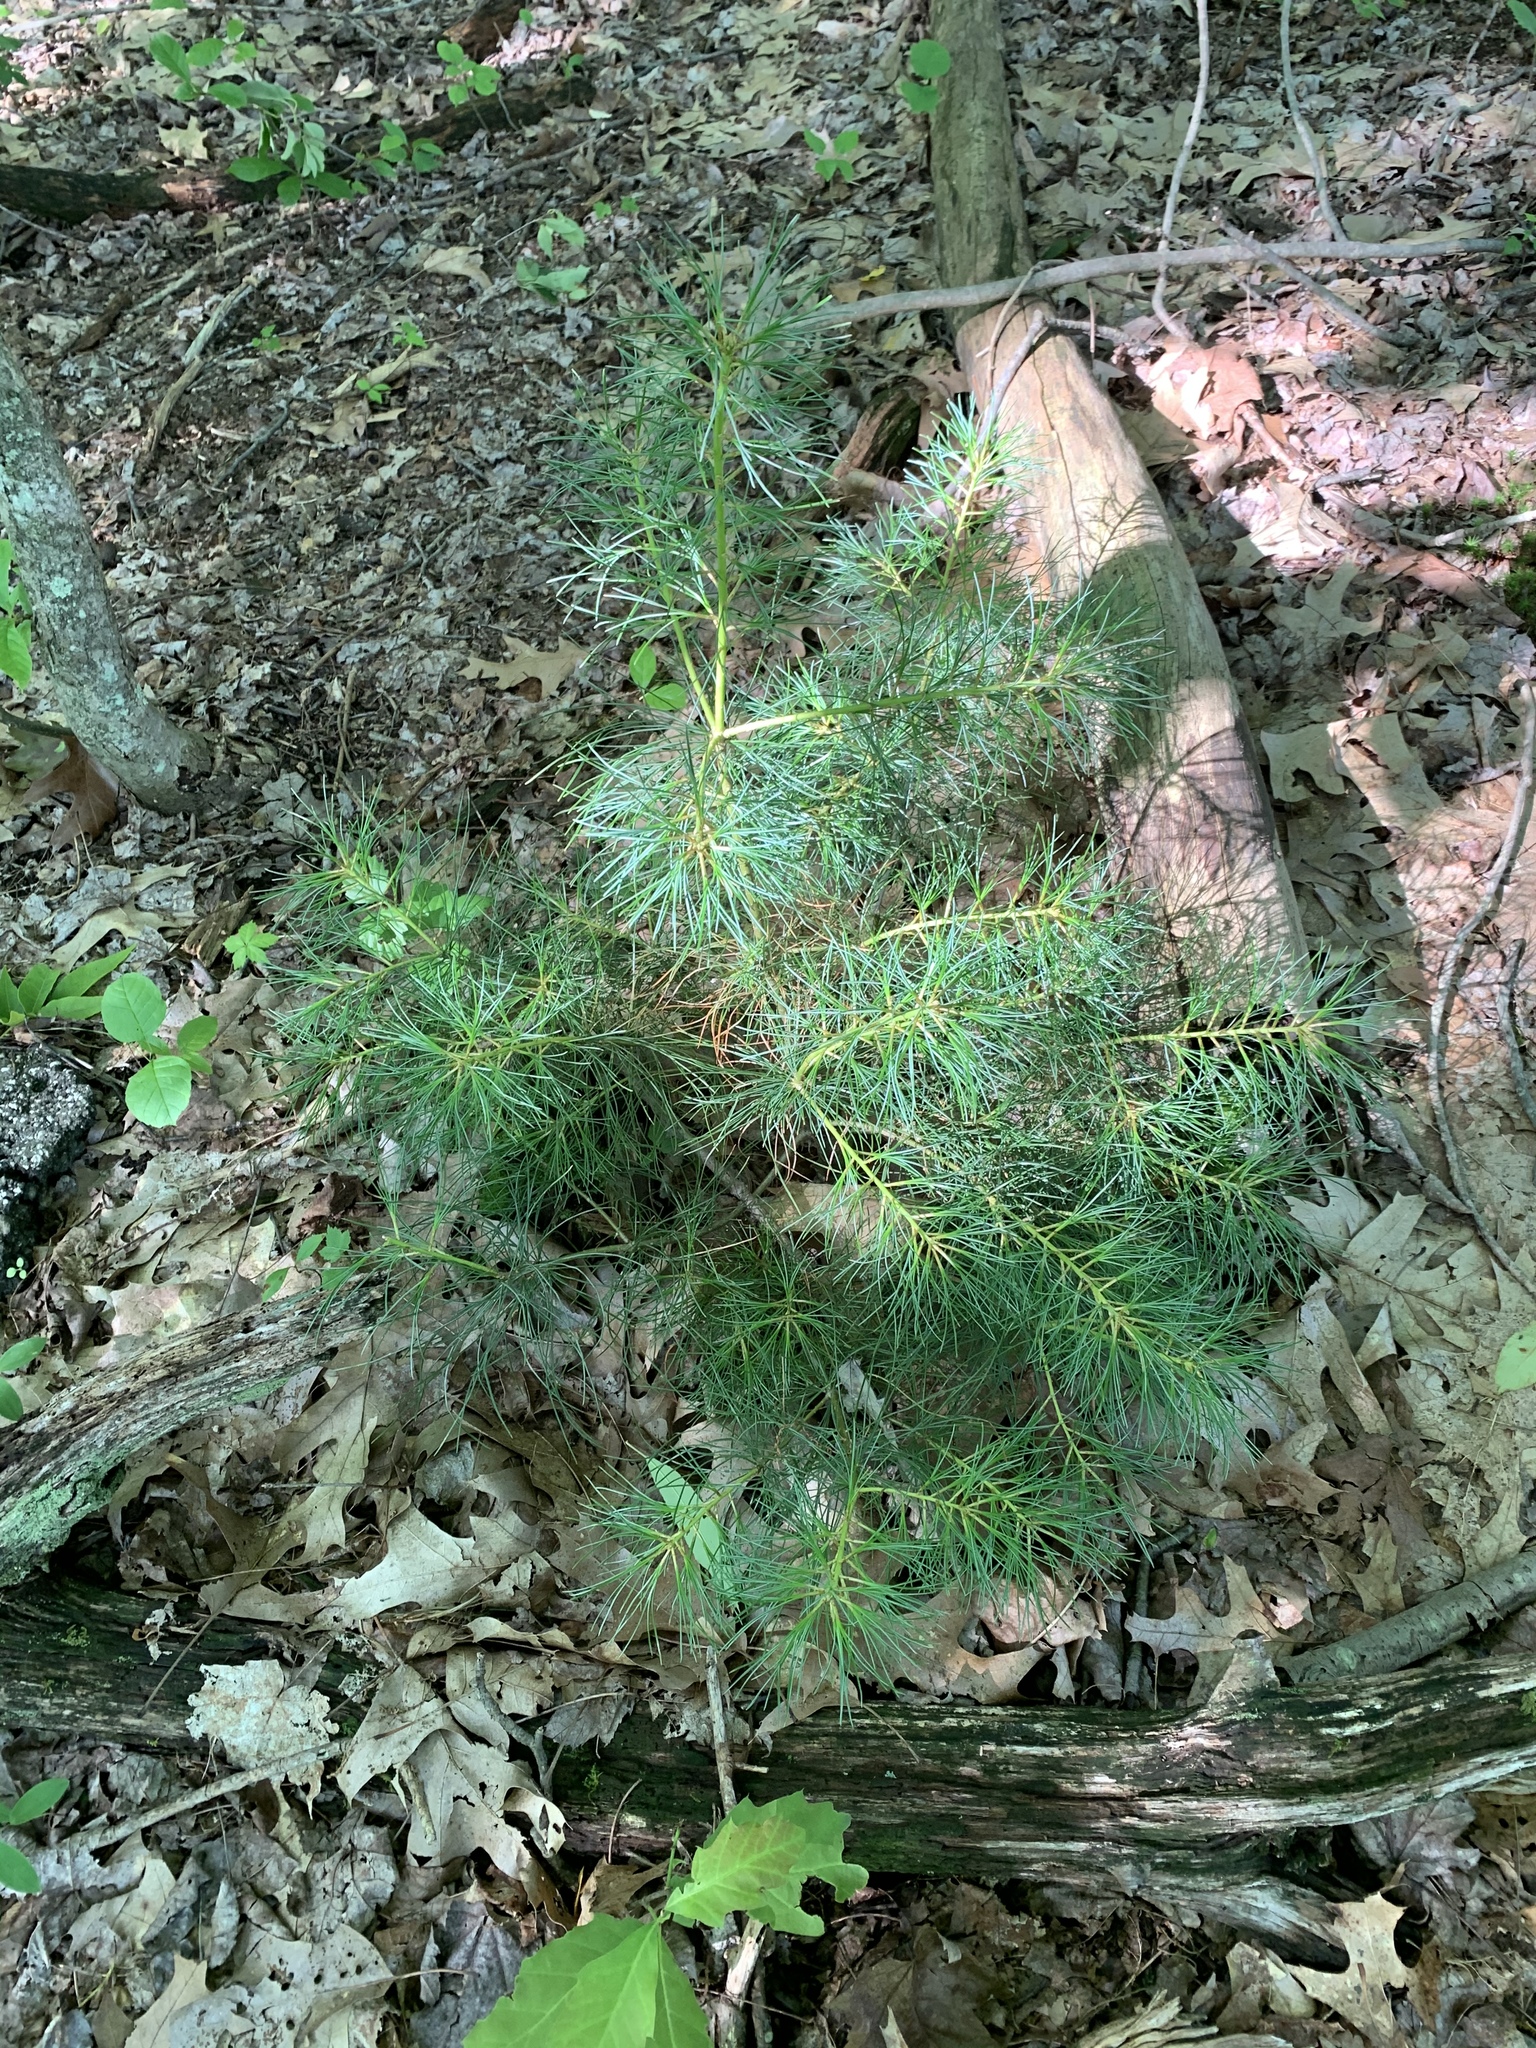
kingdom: Plantae
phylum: Tracheophyta
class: Pinopsida
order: Pinales
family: Pinaceae
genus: Pinus
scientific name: Pinus strobus
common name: Weymouth pine
